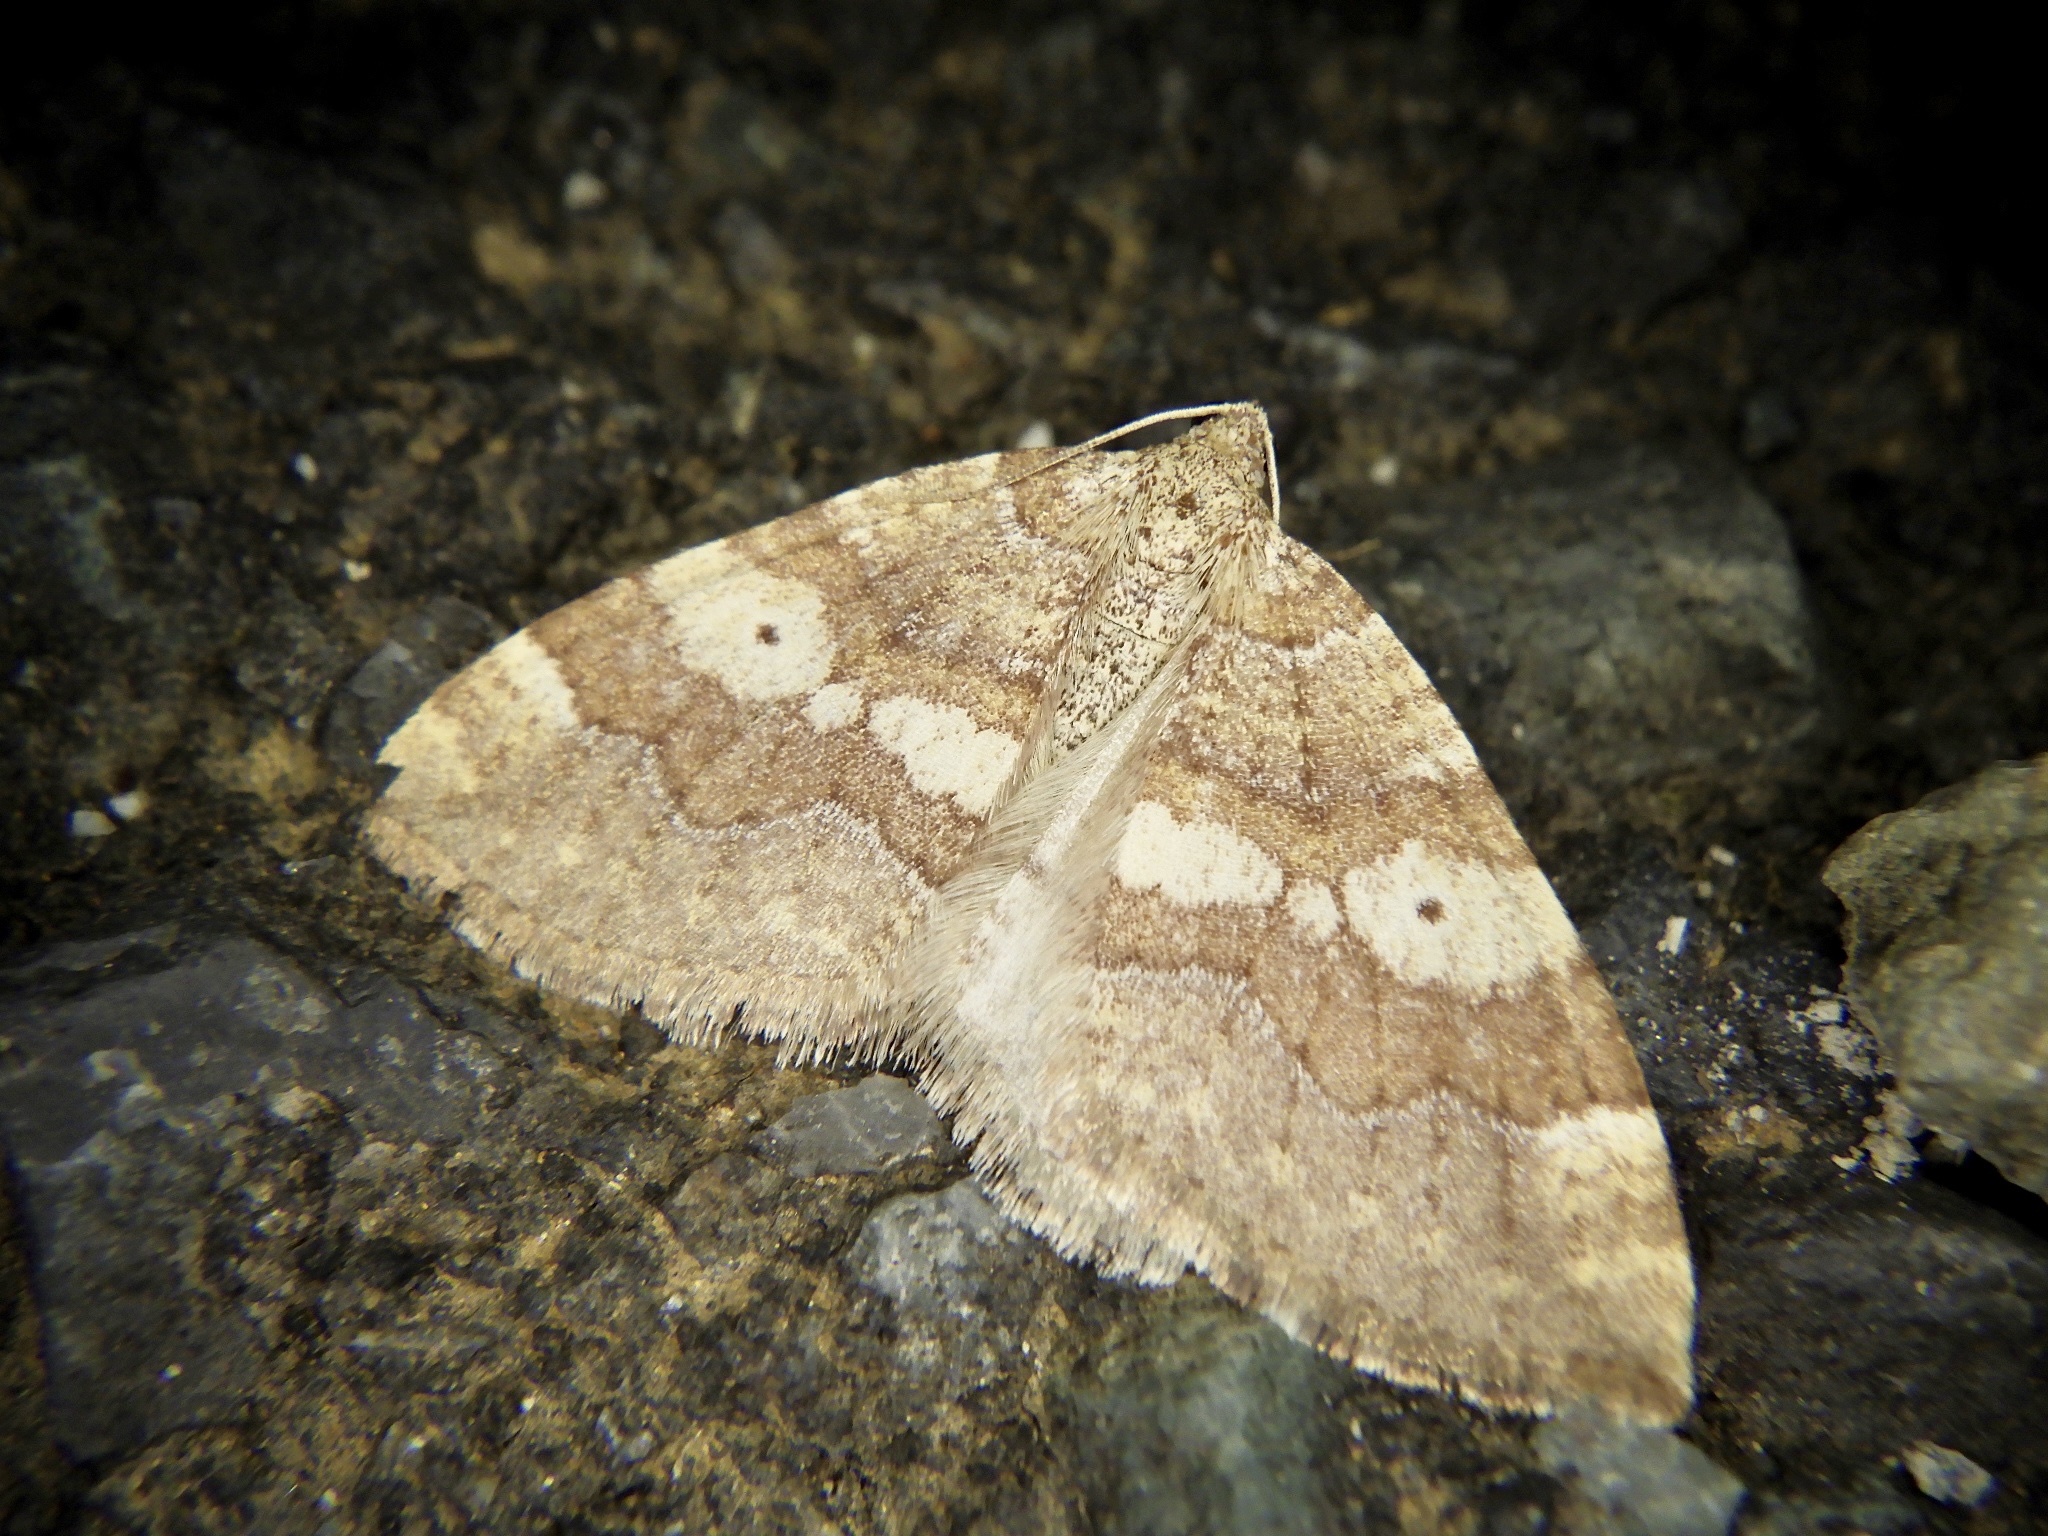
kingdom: Animalia
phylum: Arthropoda
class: Insecta
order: Lepidoptera
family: Geometridae
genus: Idiotephria
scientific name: Idiotephria evanescens
